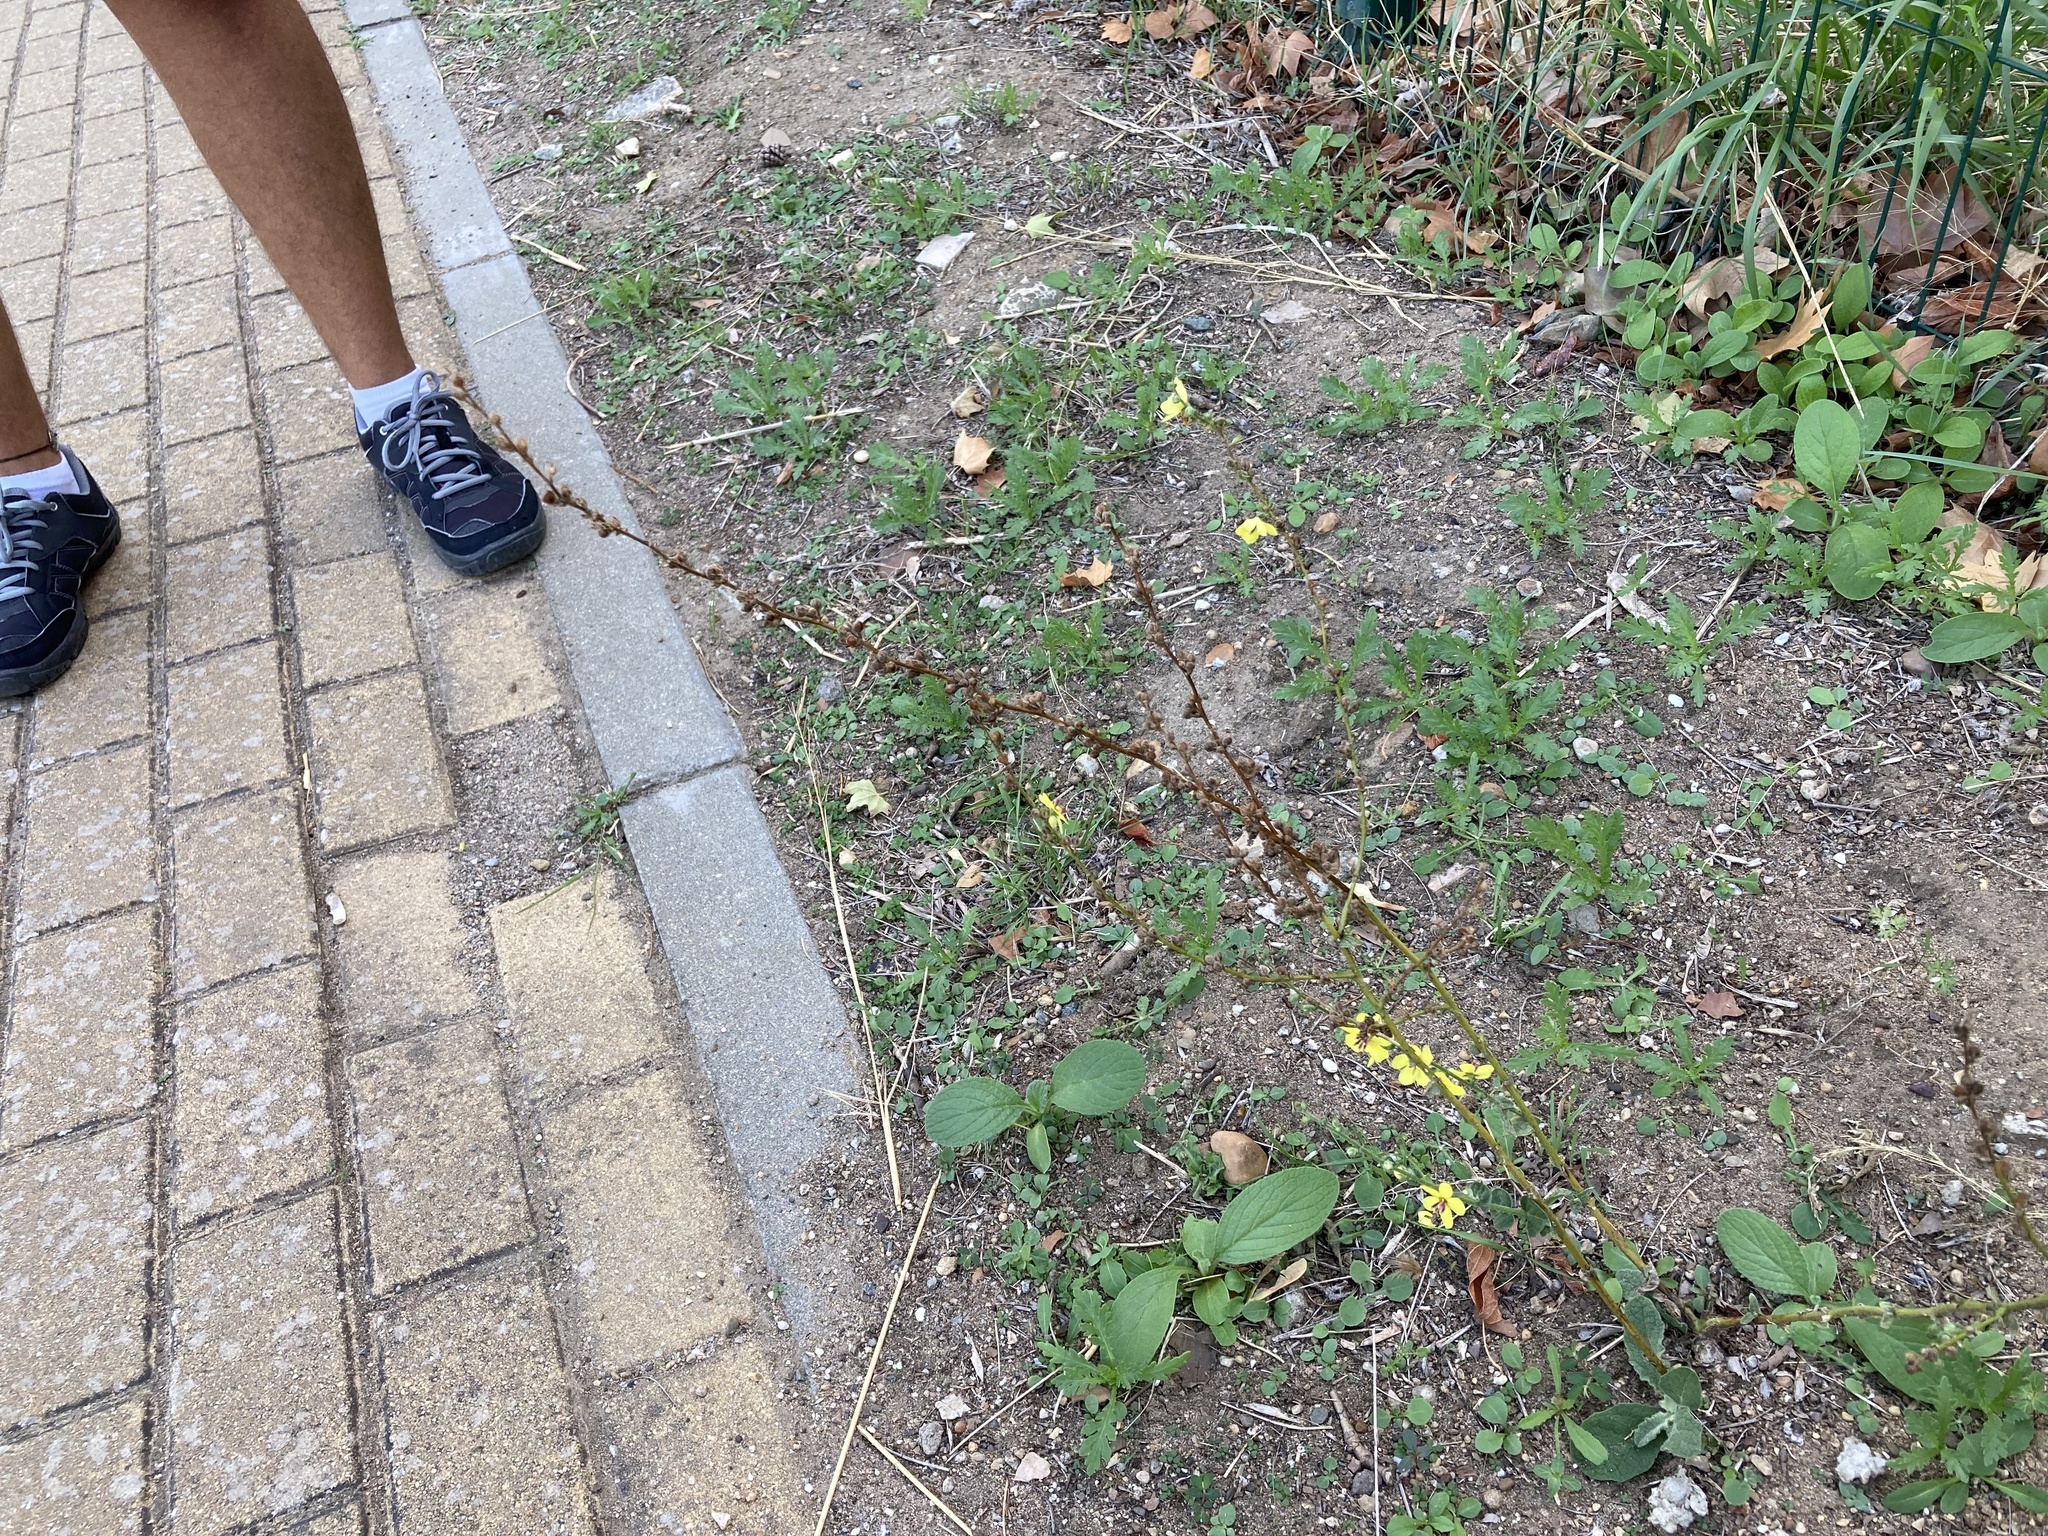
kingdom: Plantae
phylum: Tracheophyta
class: Magnoliopsida
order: Lamiales
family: Scrophulariaceae
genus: Verbascum
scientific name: Verbascum sinuatum
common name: Wavyleaf mullein
